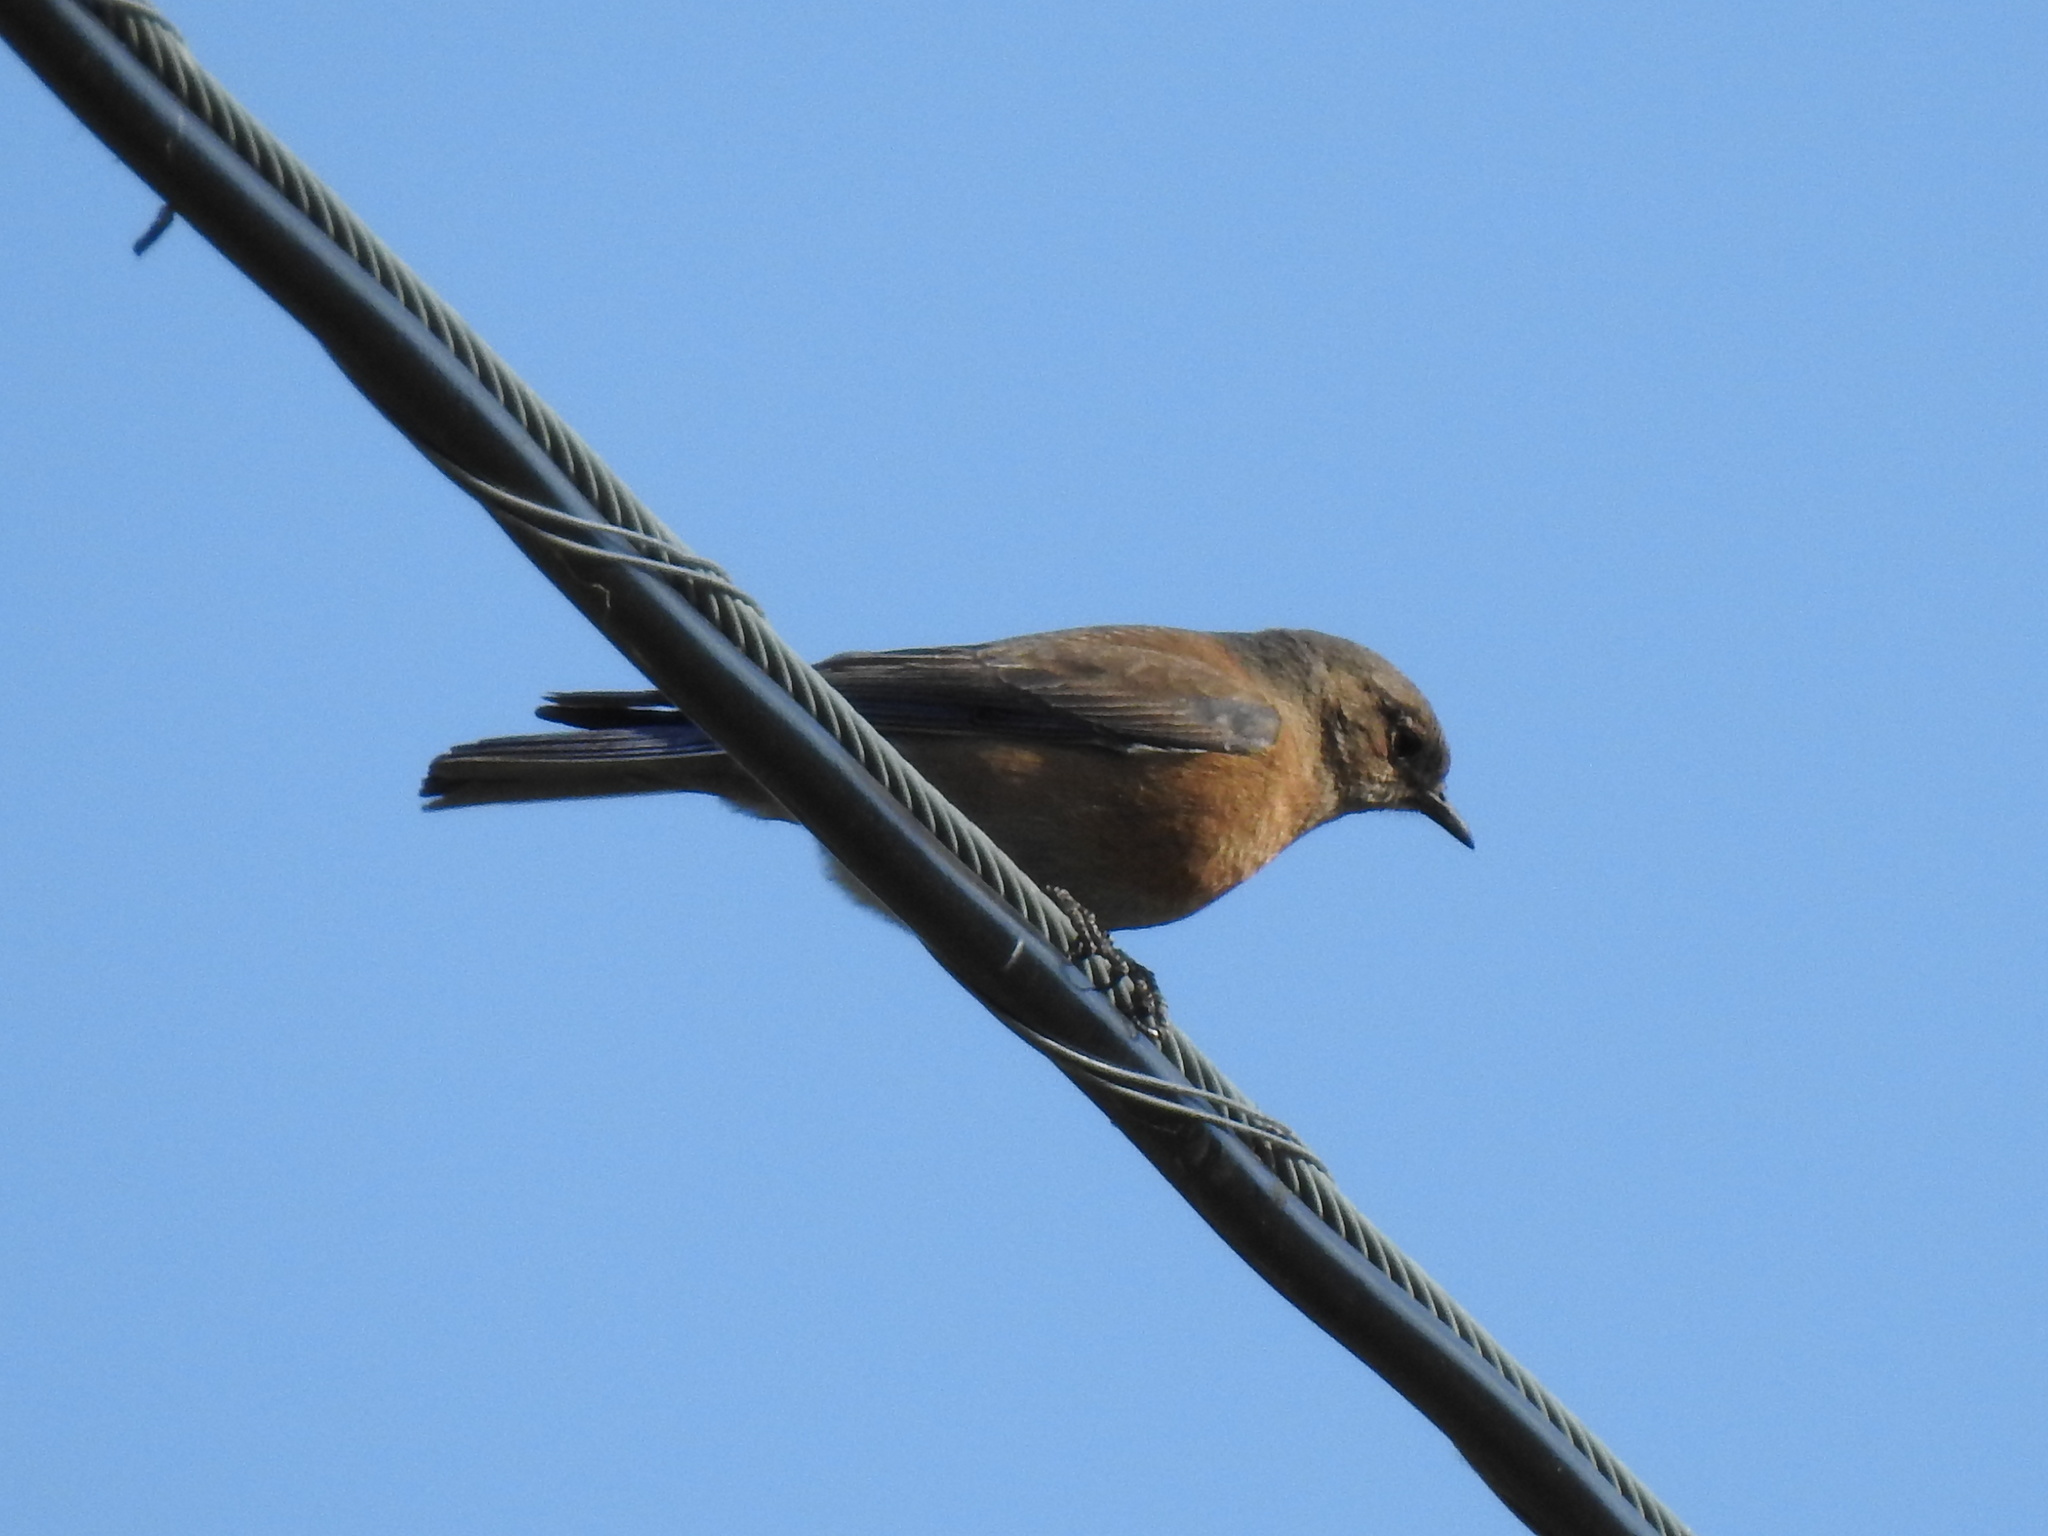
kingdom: Animalia
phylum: Chordata
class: Aves
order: Passeriformes
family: Turdidae
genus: Sialia
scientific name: Sialia mexicana
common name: Western bluebird
